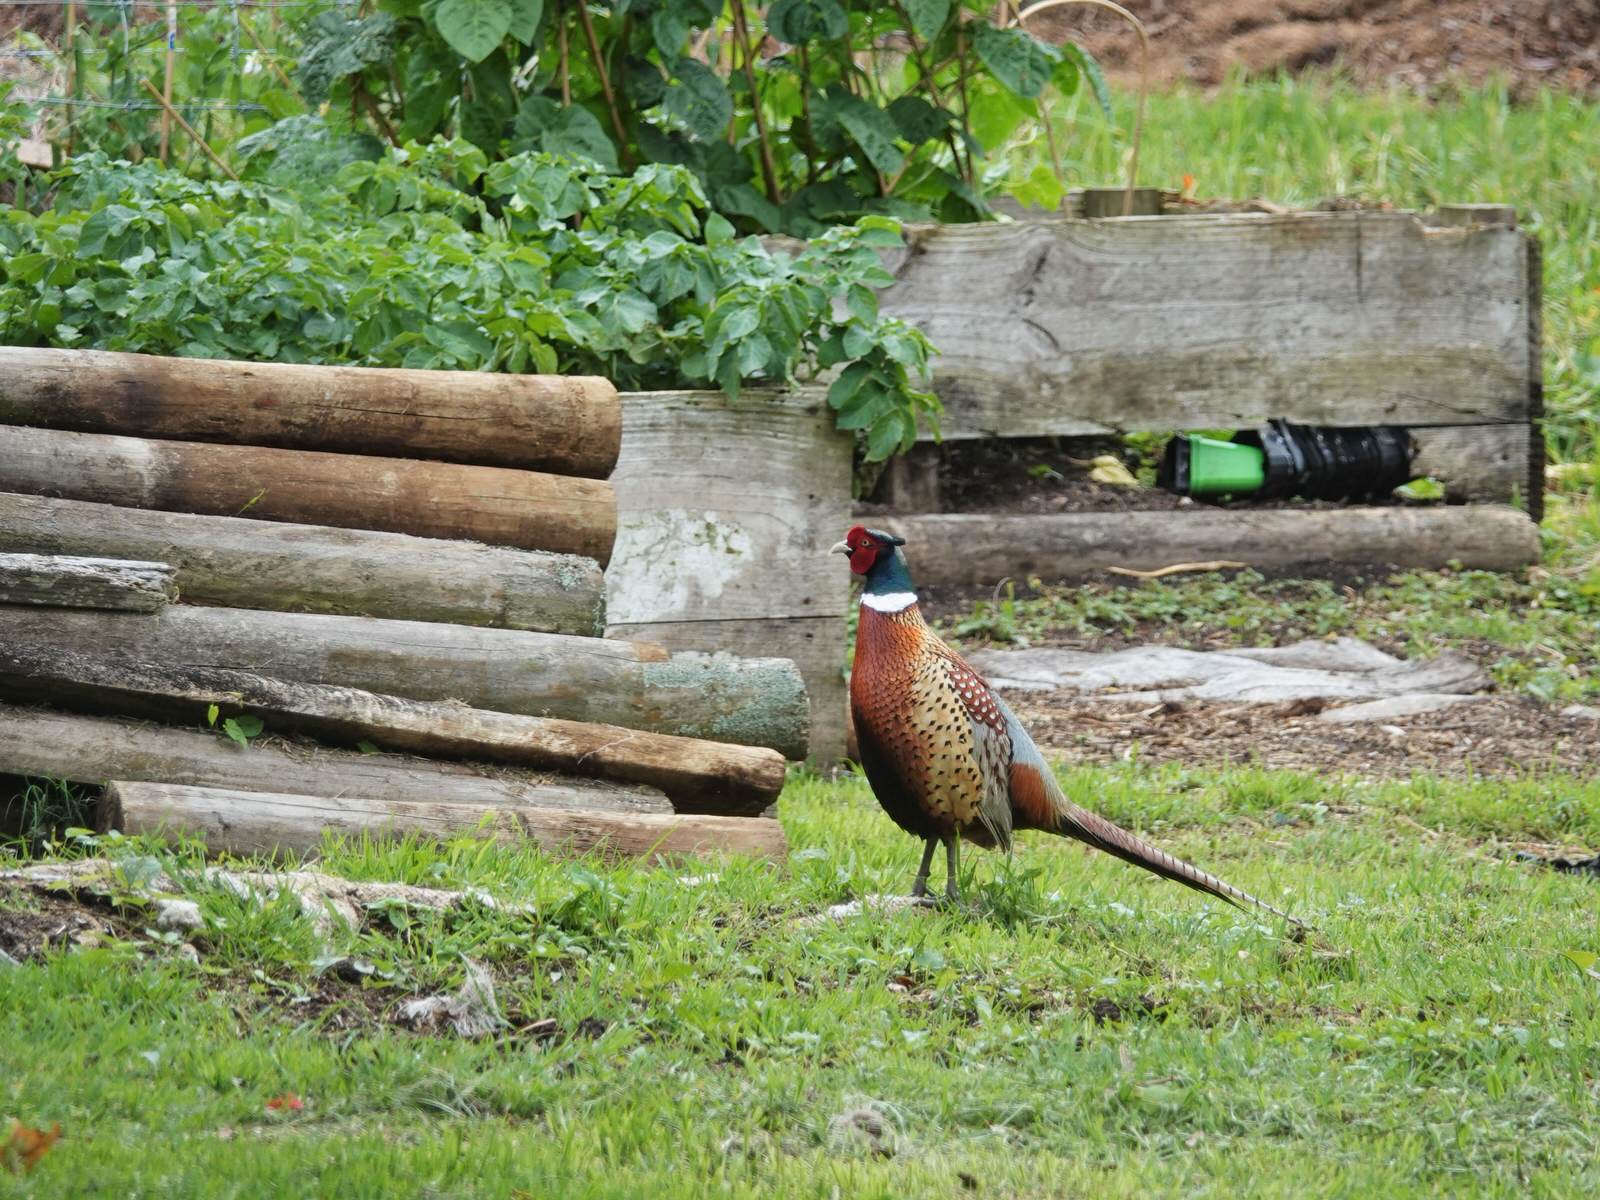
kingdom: Animalia
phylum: Chordata
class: Aves
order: Galliformes
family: Phasianidae
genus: Phasianus
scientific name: Phasianus colchicus
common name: Common pheasant
